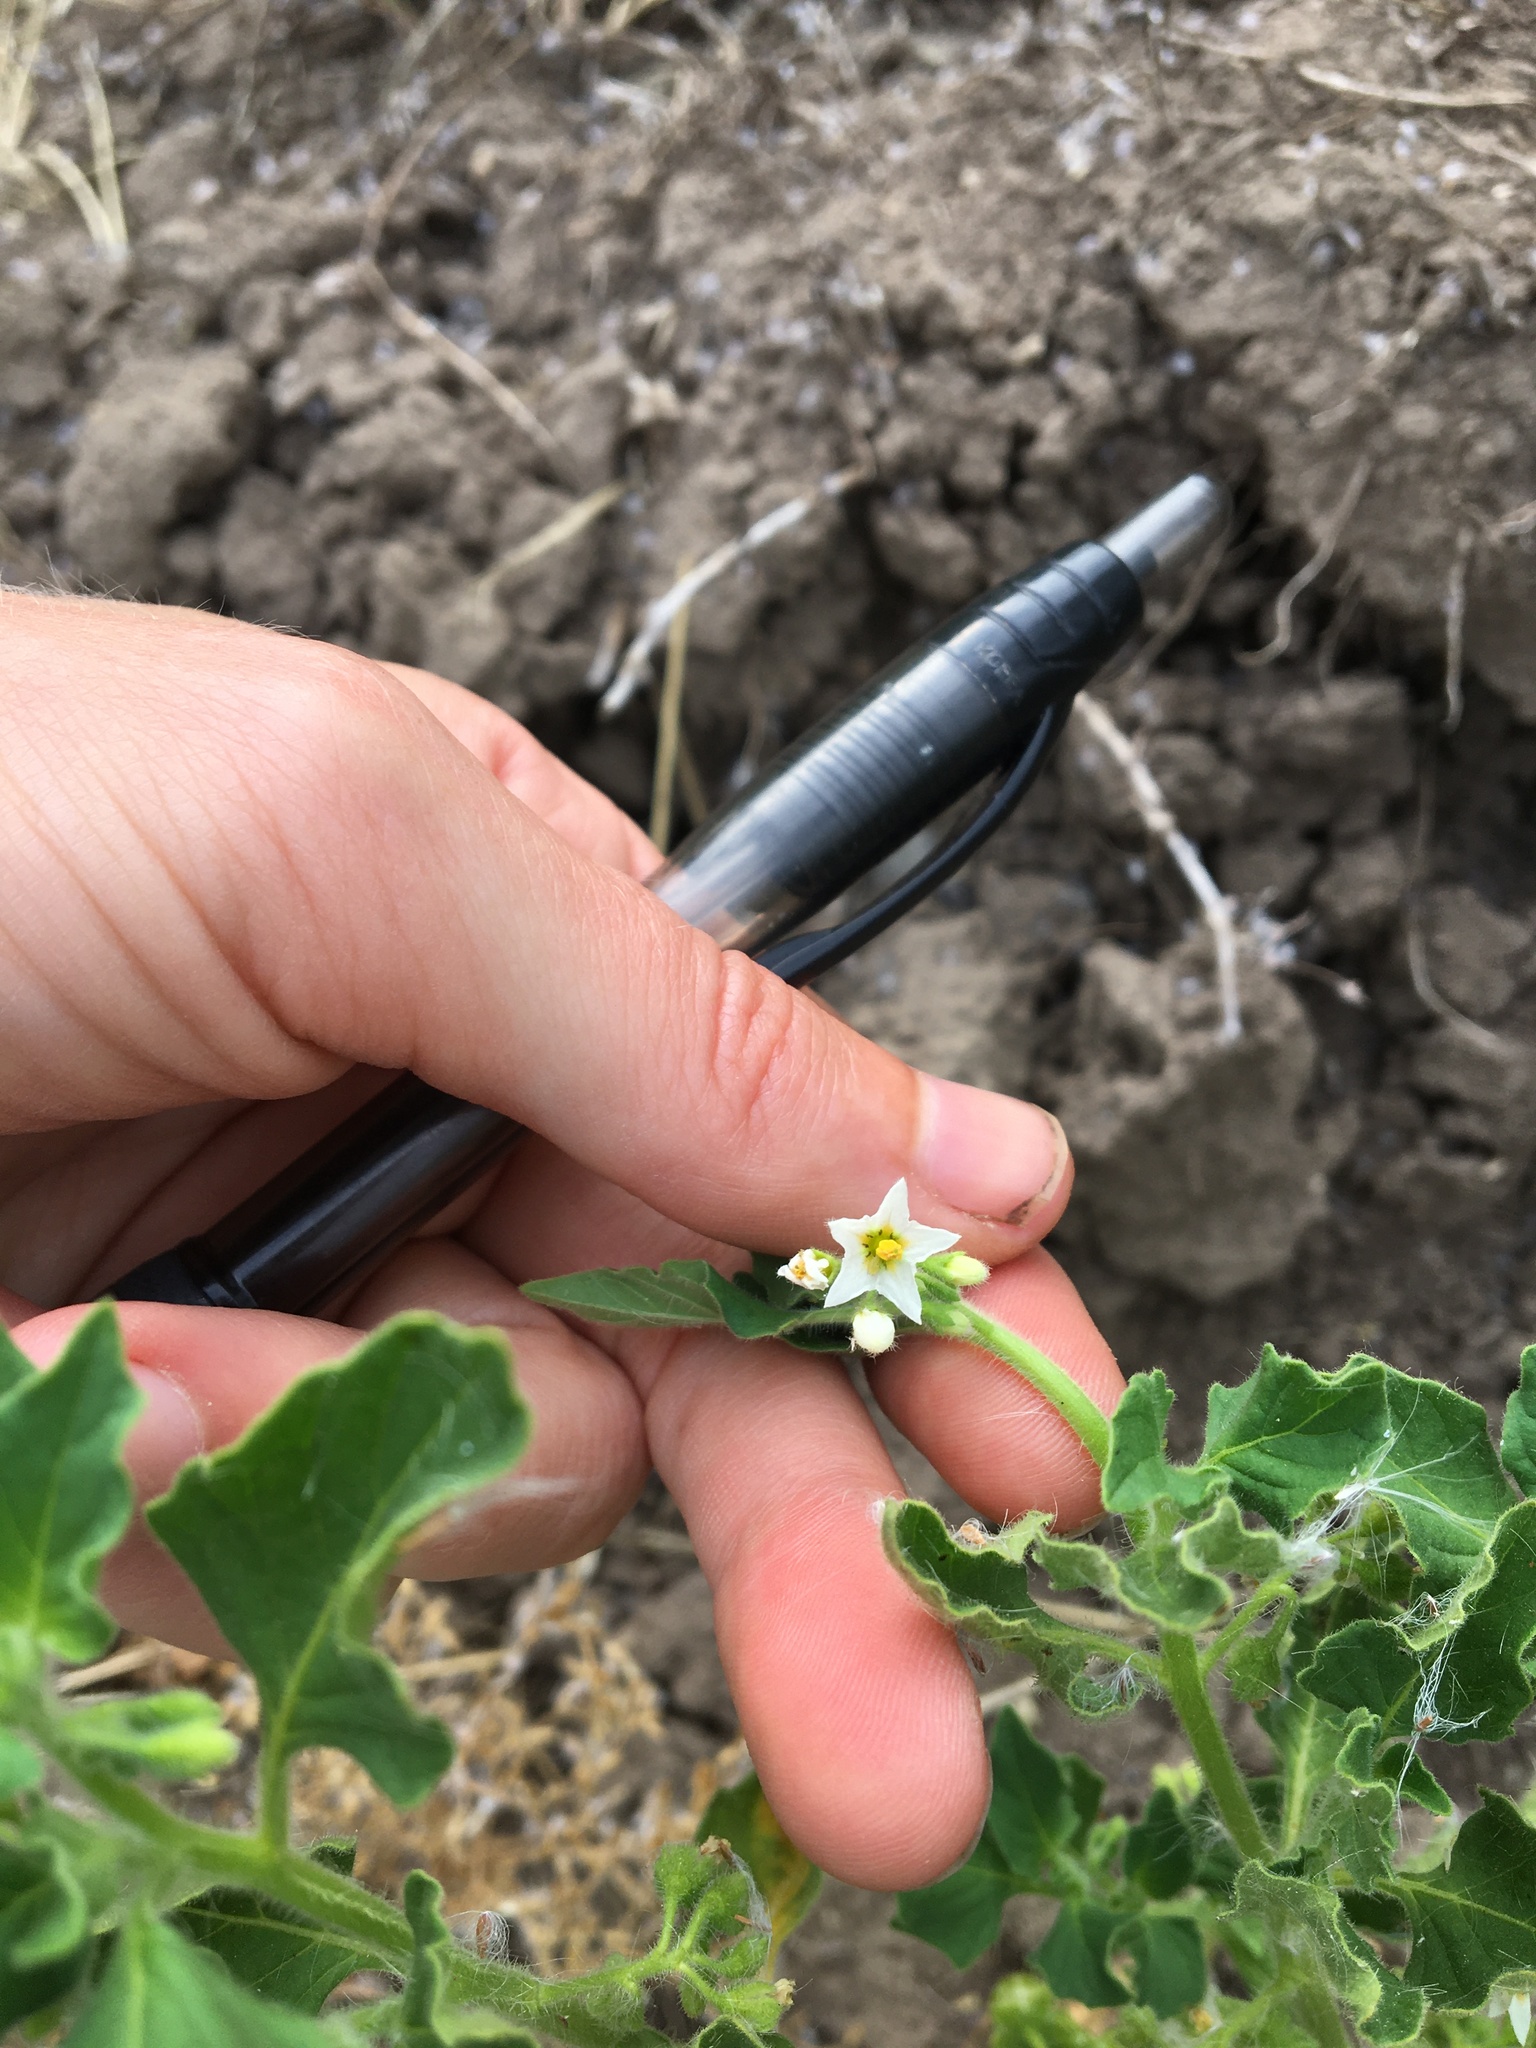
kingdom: Plantae
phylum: Tracheophyta
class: Magnoliopsida
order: Solanales
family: Solanaceae
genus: Solanum
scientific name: Solanum nitidibaccatum
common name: Hairy nightshade
